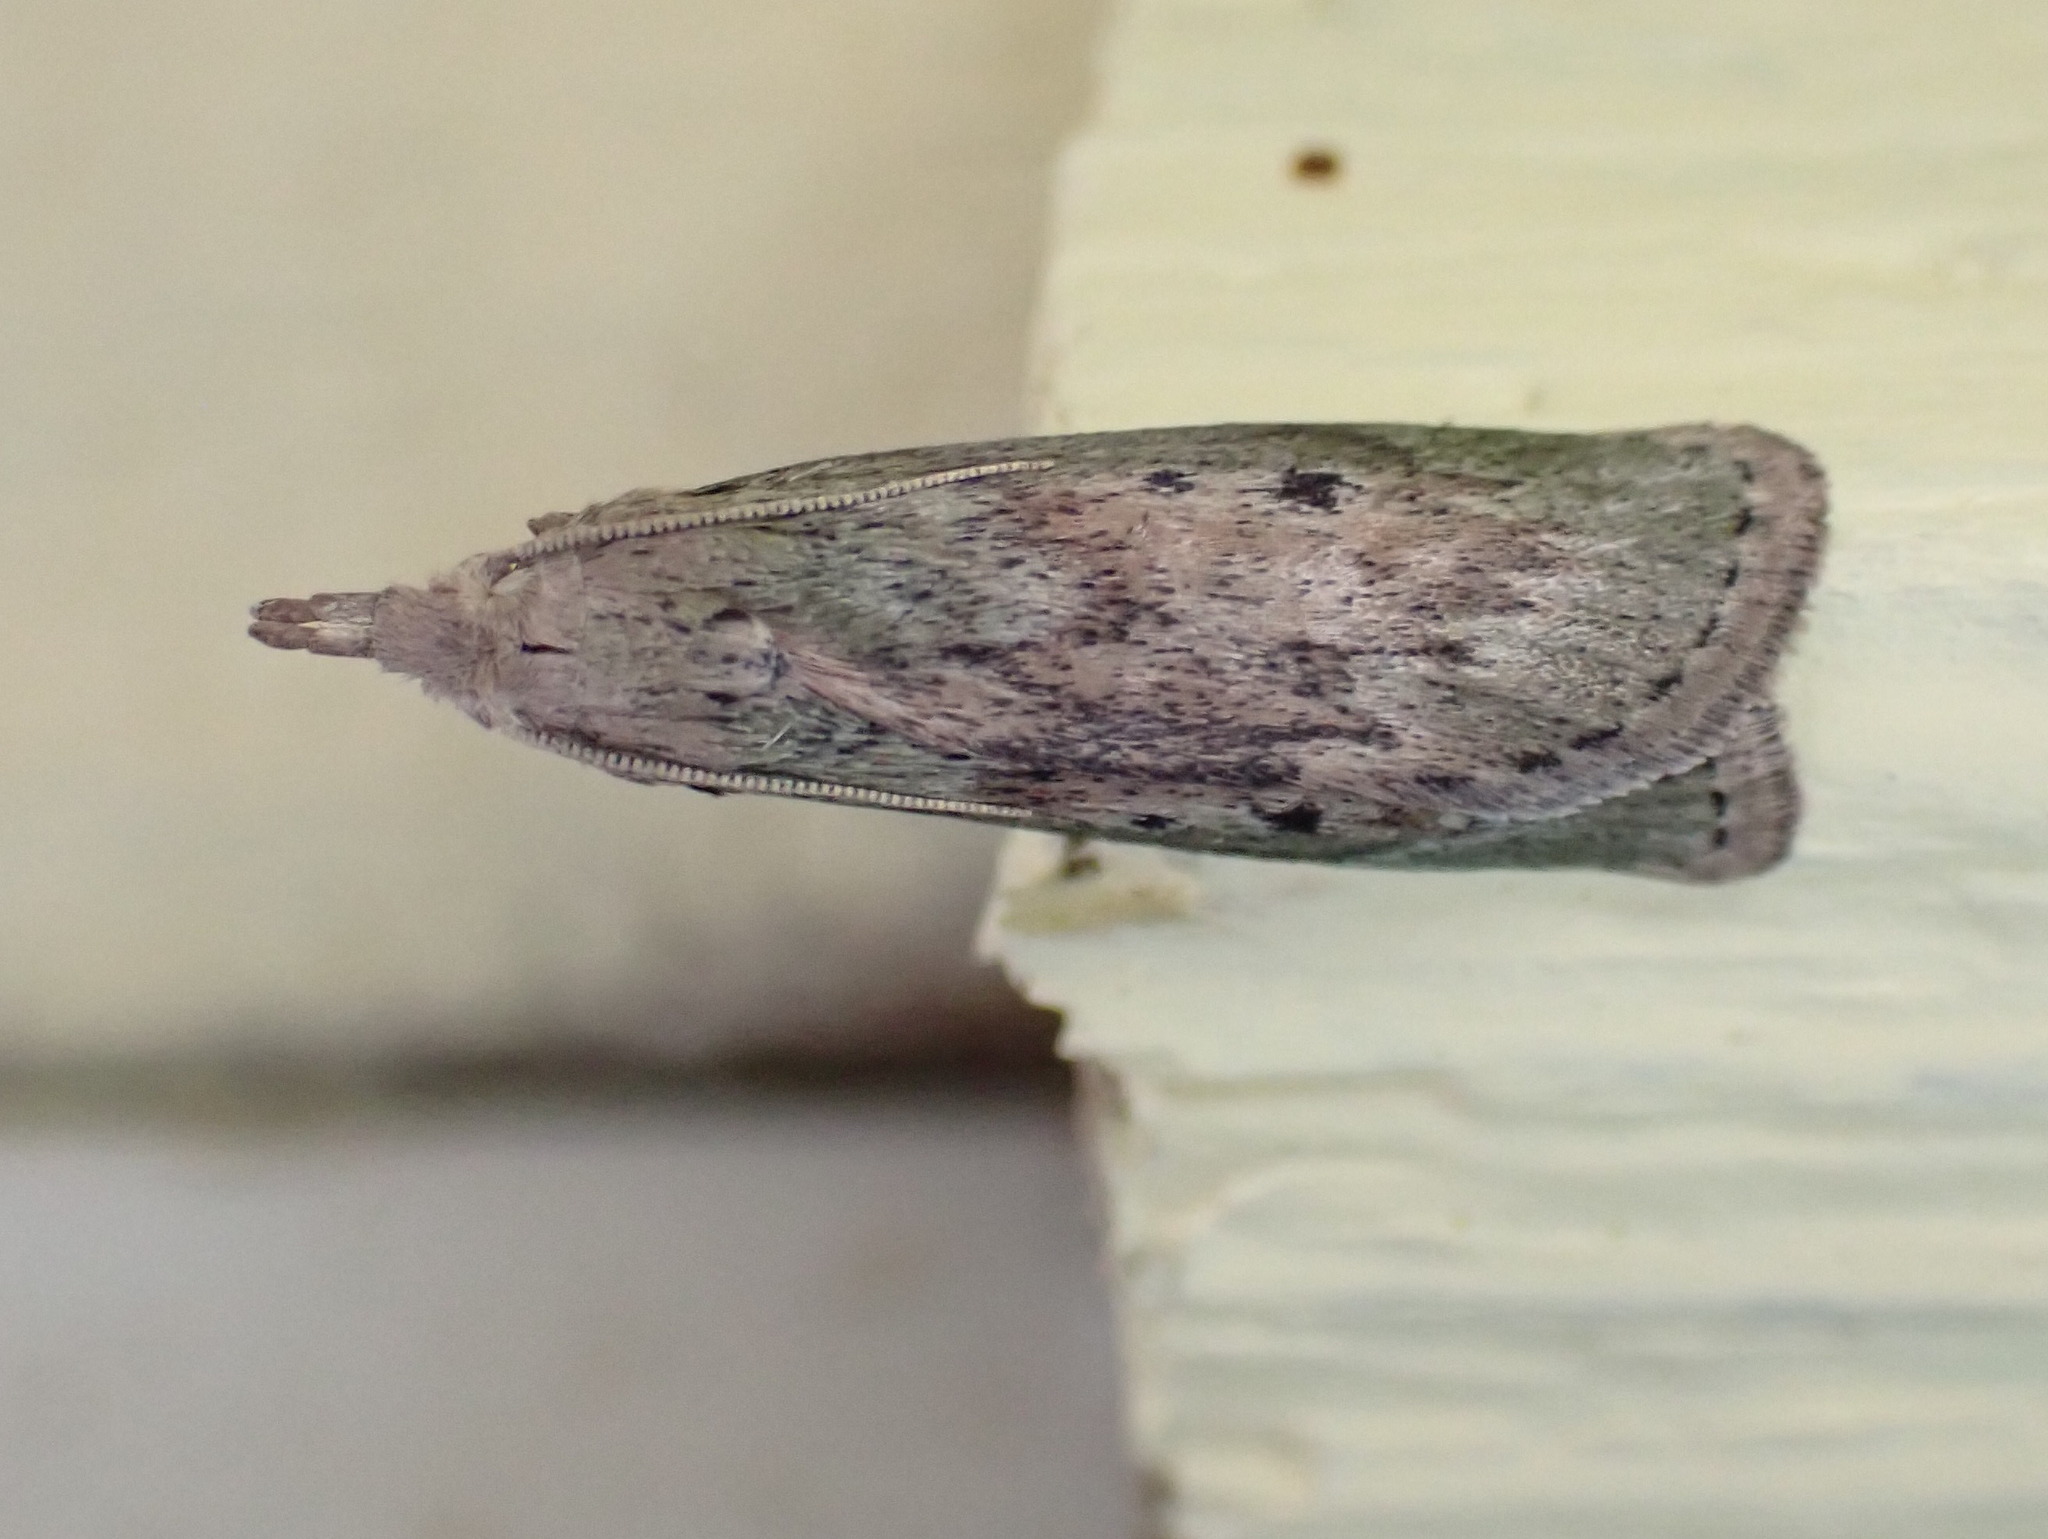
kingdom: Animalia
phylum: Arthropoda
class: Insecta
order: Lepidoptera
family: Pyralidae
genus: Aphomia
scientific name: Aphomia sociella
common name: Bee moth
